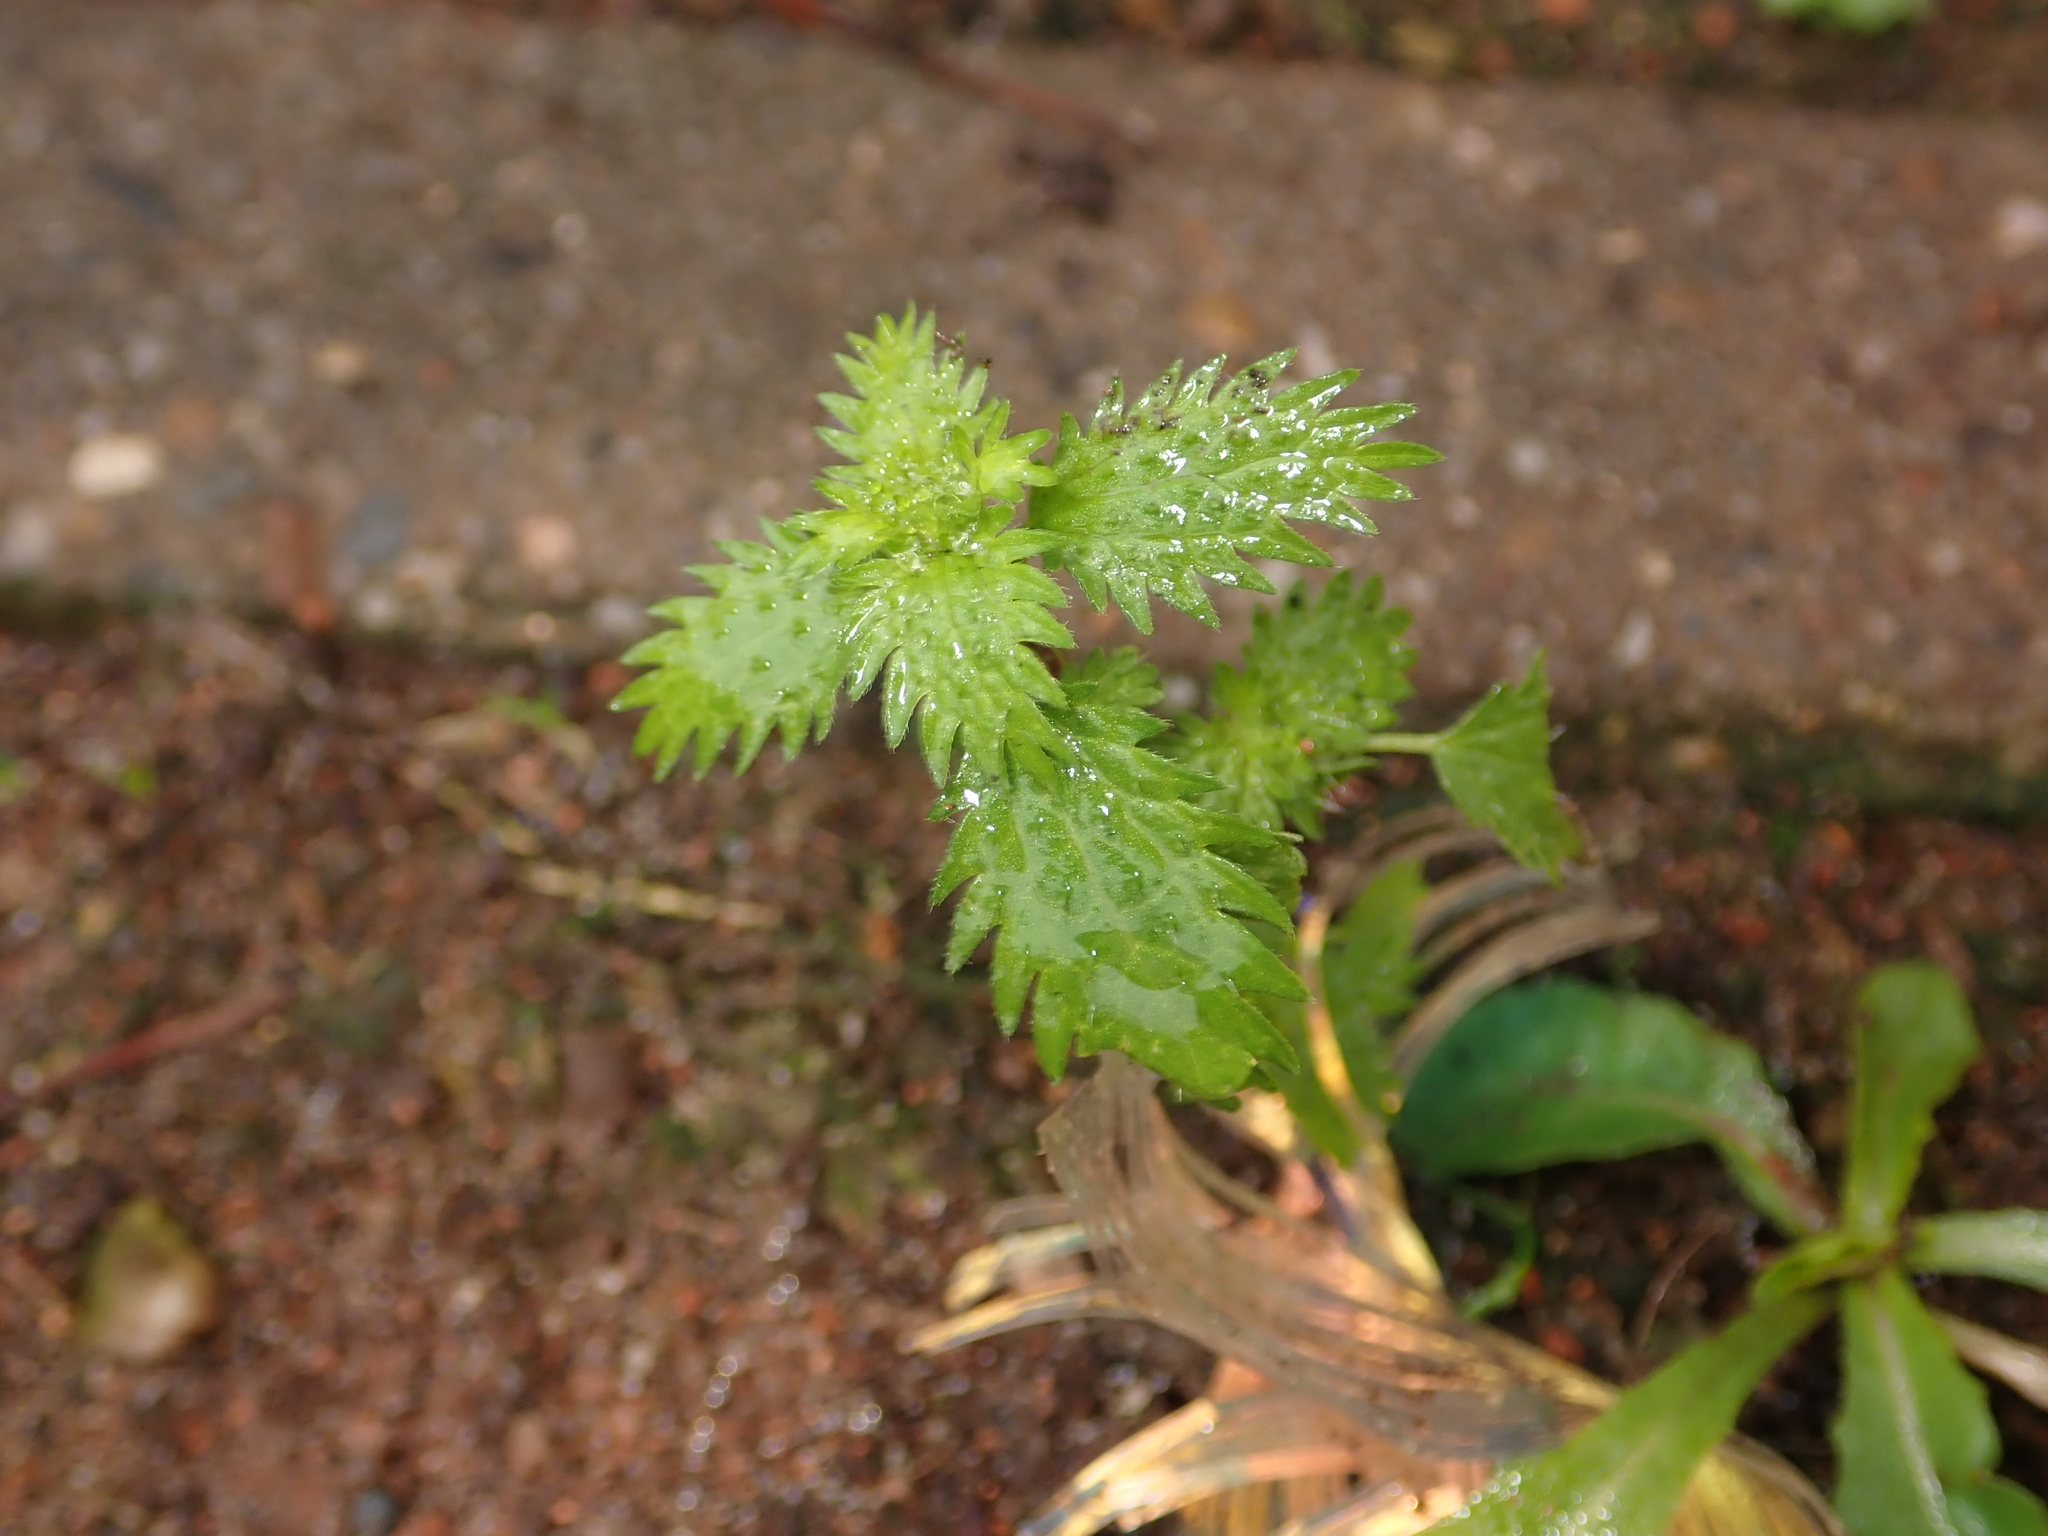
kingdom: Plantae
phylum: Tracheophyta
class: Magnoliopsida
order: Rosales
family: Urticaceae
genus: Urtica
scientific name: Urtica urens
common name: Dwarf nettle
